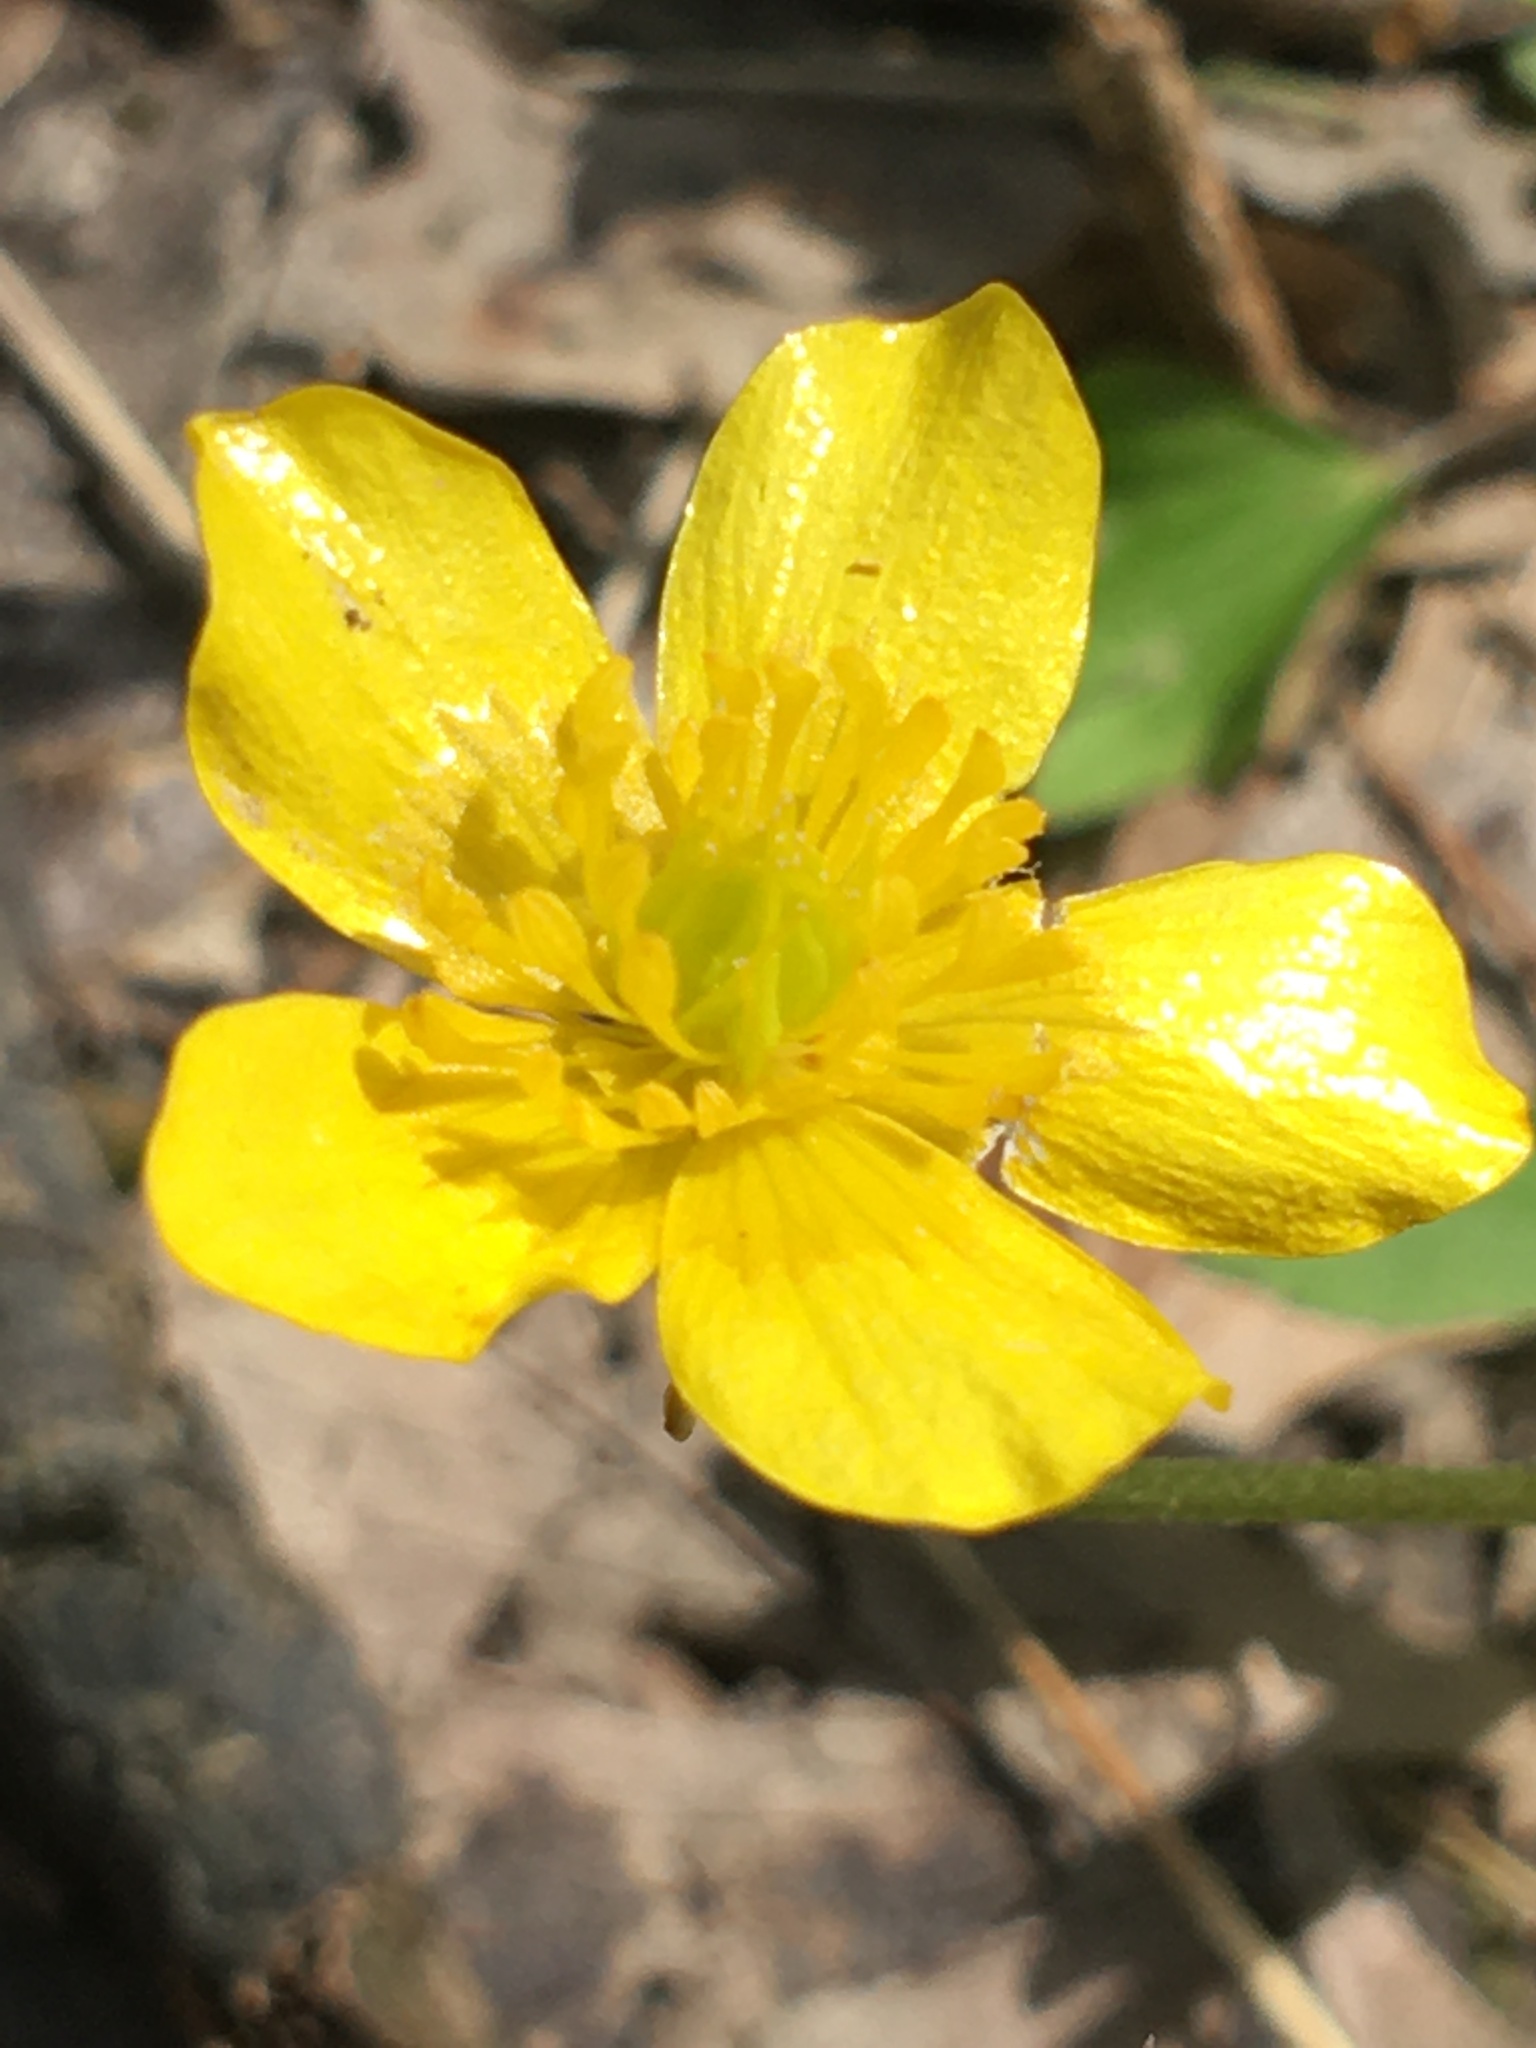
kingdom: Plantae
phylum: Tracheophyta
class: Magnoliopsida
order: Ranunculales
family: Ranunculaceae
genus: Ranunculus
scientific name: Ranunculus fascicularis
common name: Early buttercup
